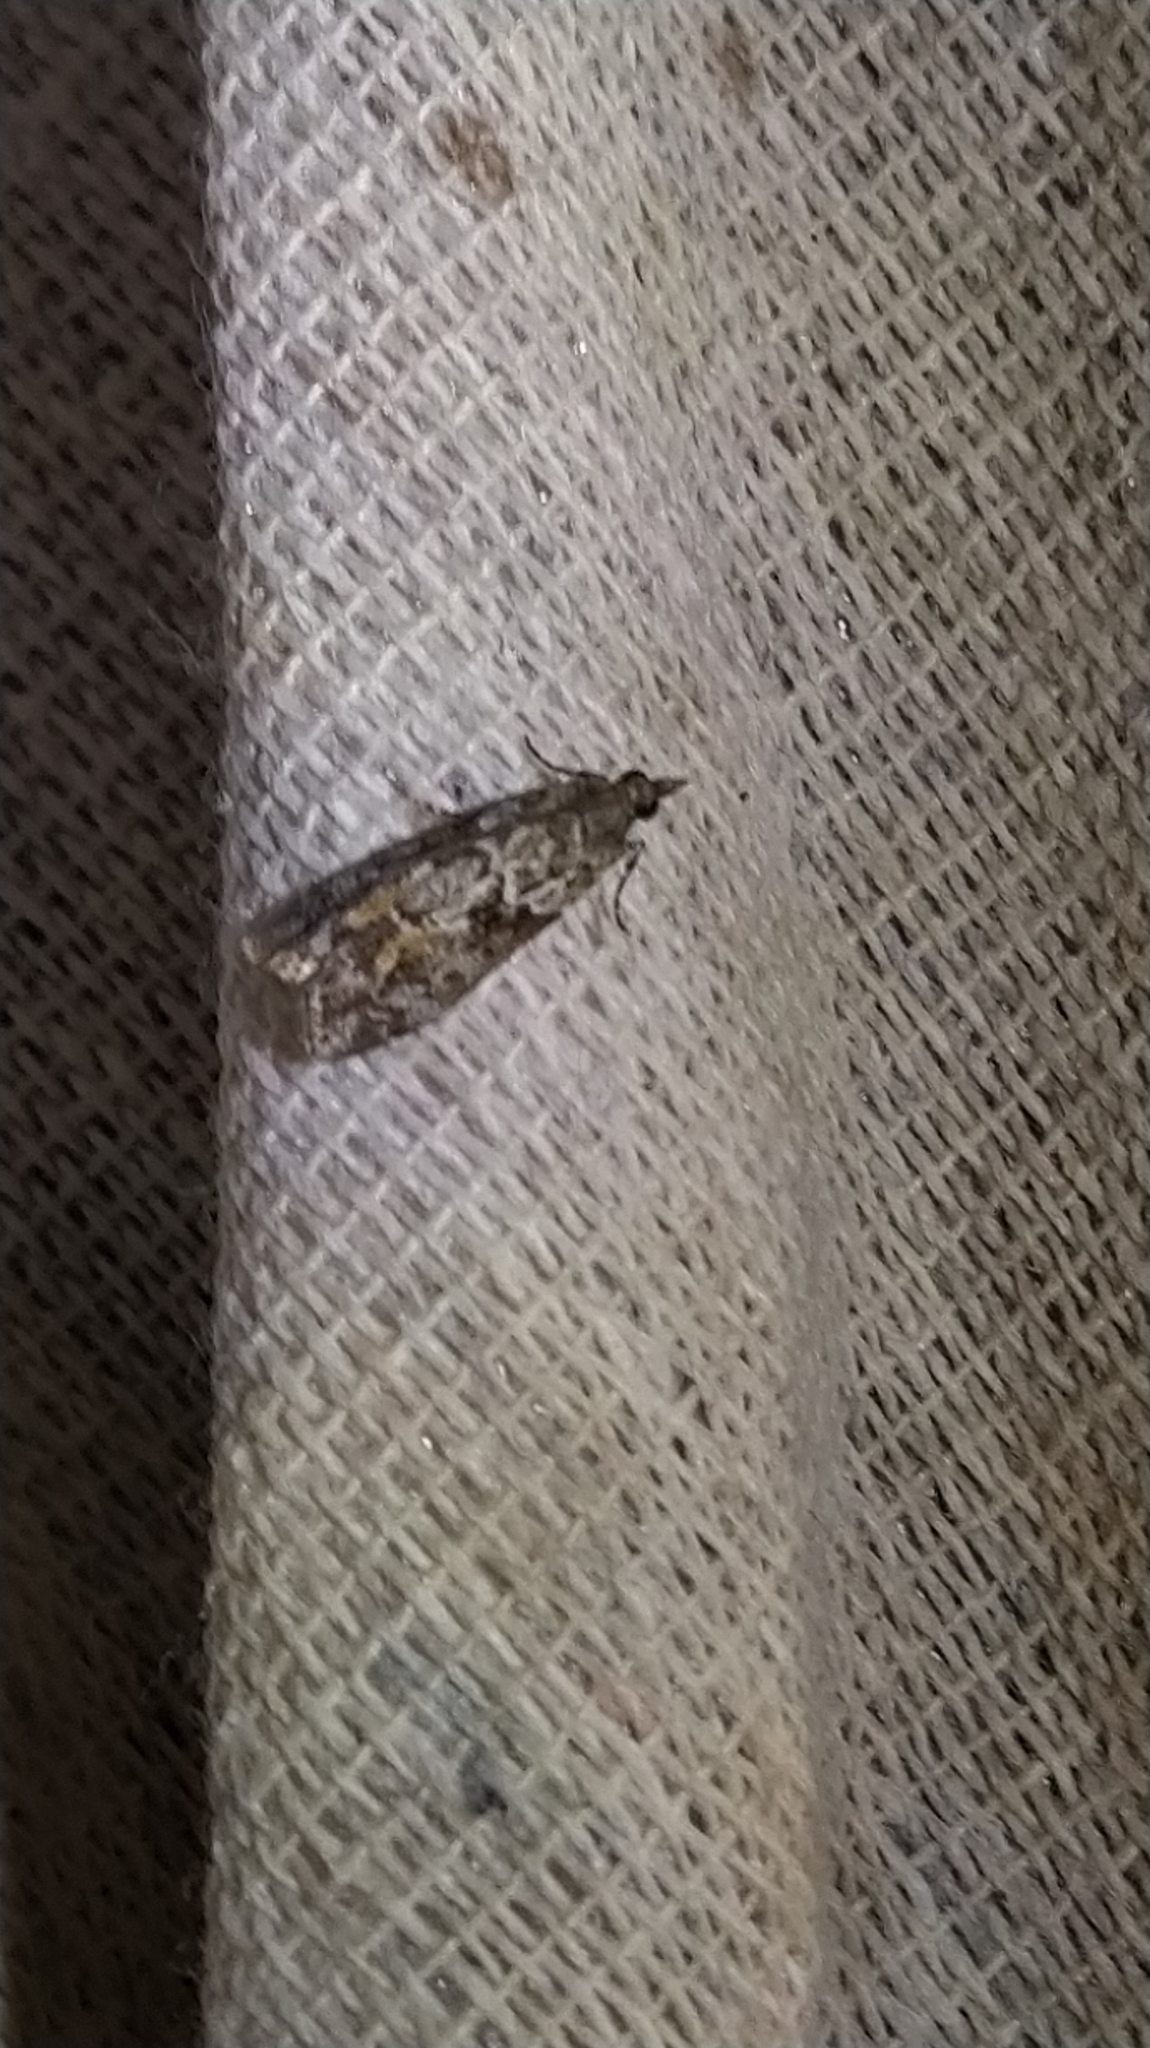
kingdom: Animalia
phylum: Arthropoda
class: Insecta
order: Lepidoptera
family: Crambidae
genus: Eudonia
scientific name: Eudonia submarginalis
